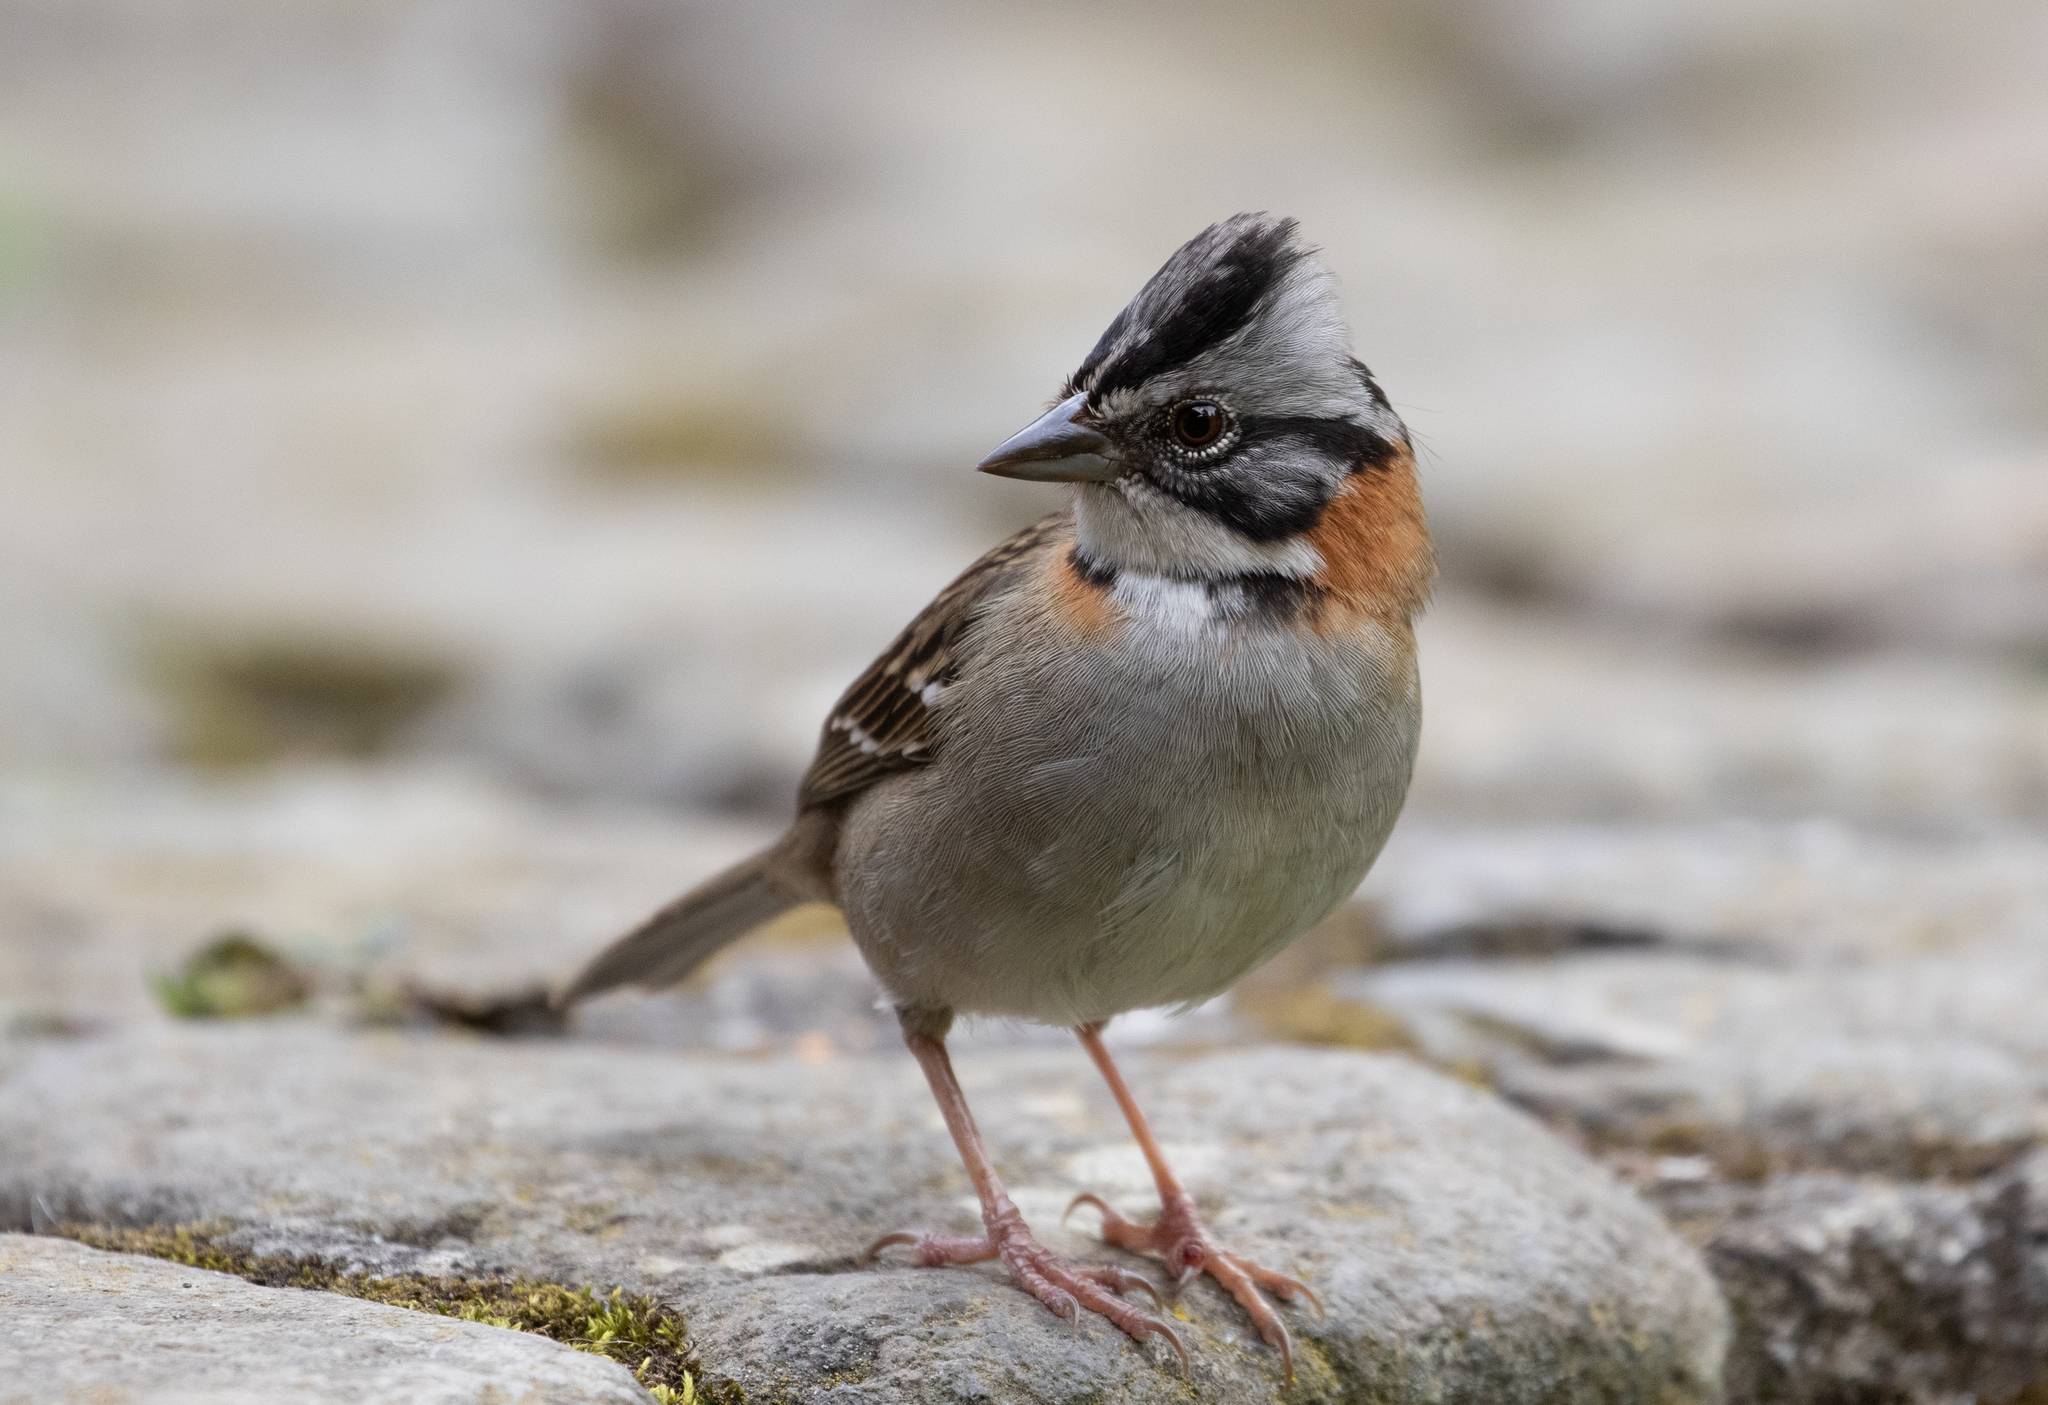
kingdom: Animalia
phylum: Chordata
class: Aves
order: Passeriformes
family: Passerellidae
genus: Zonotrichia
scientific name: Zonotrichia capensis
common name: Rufous-collared sparrow
